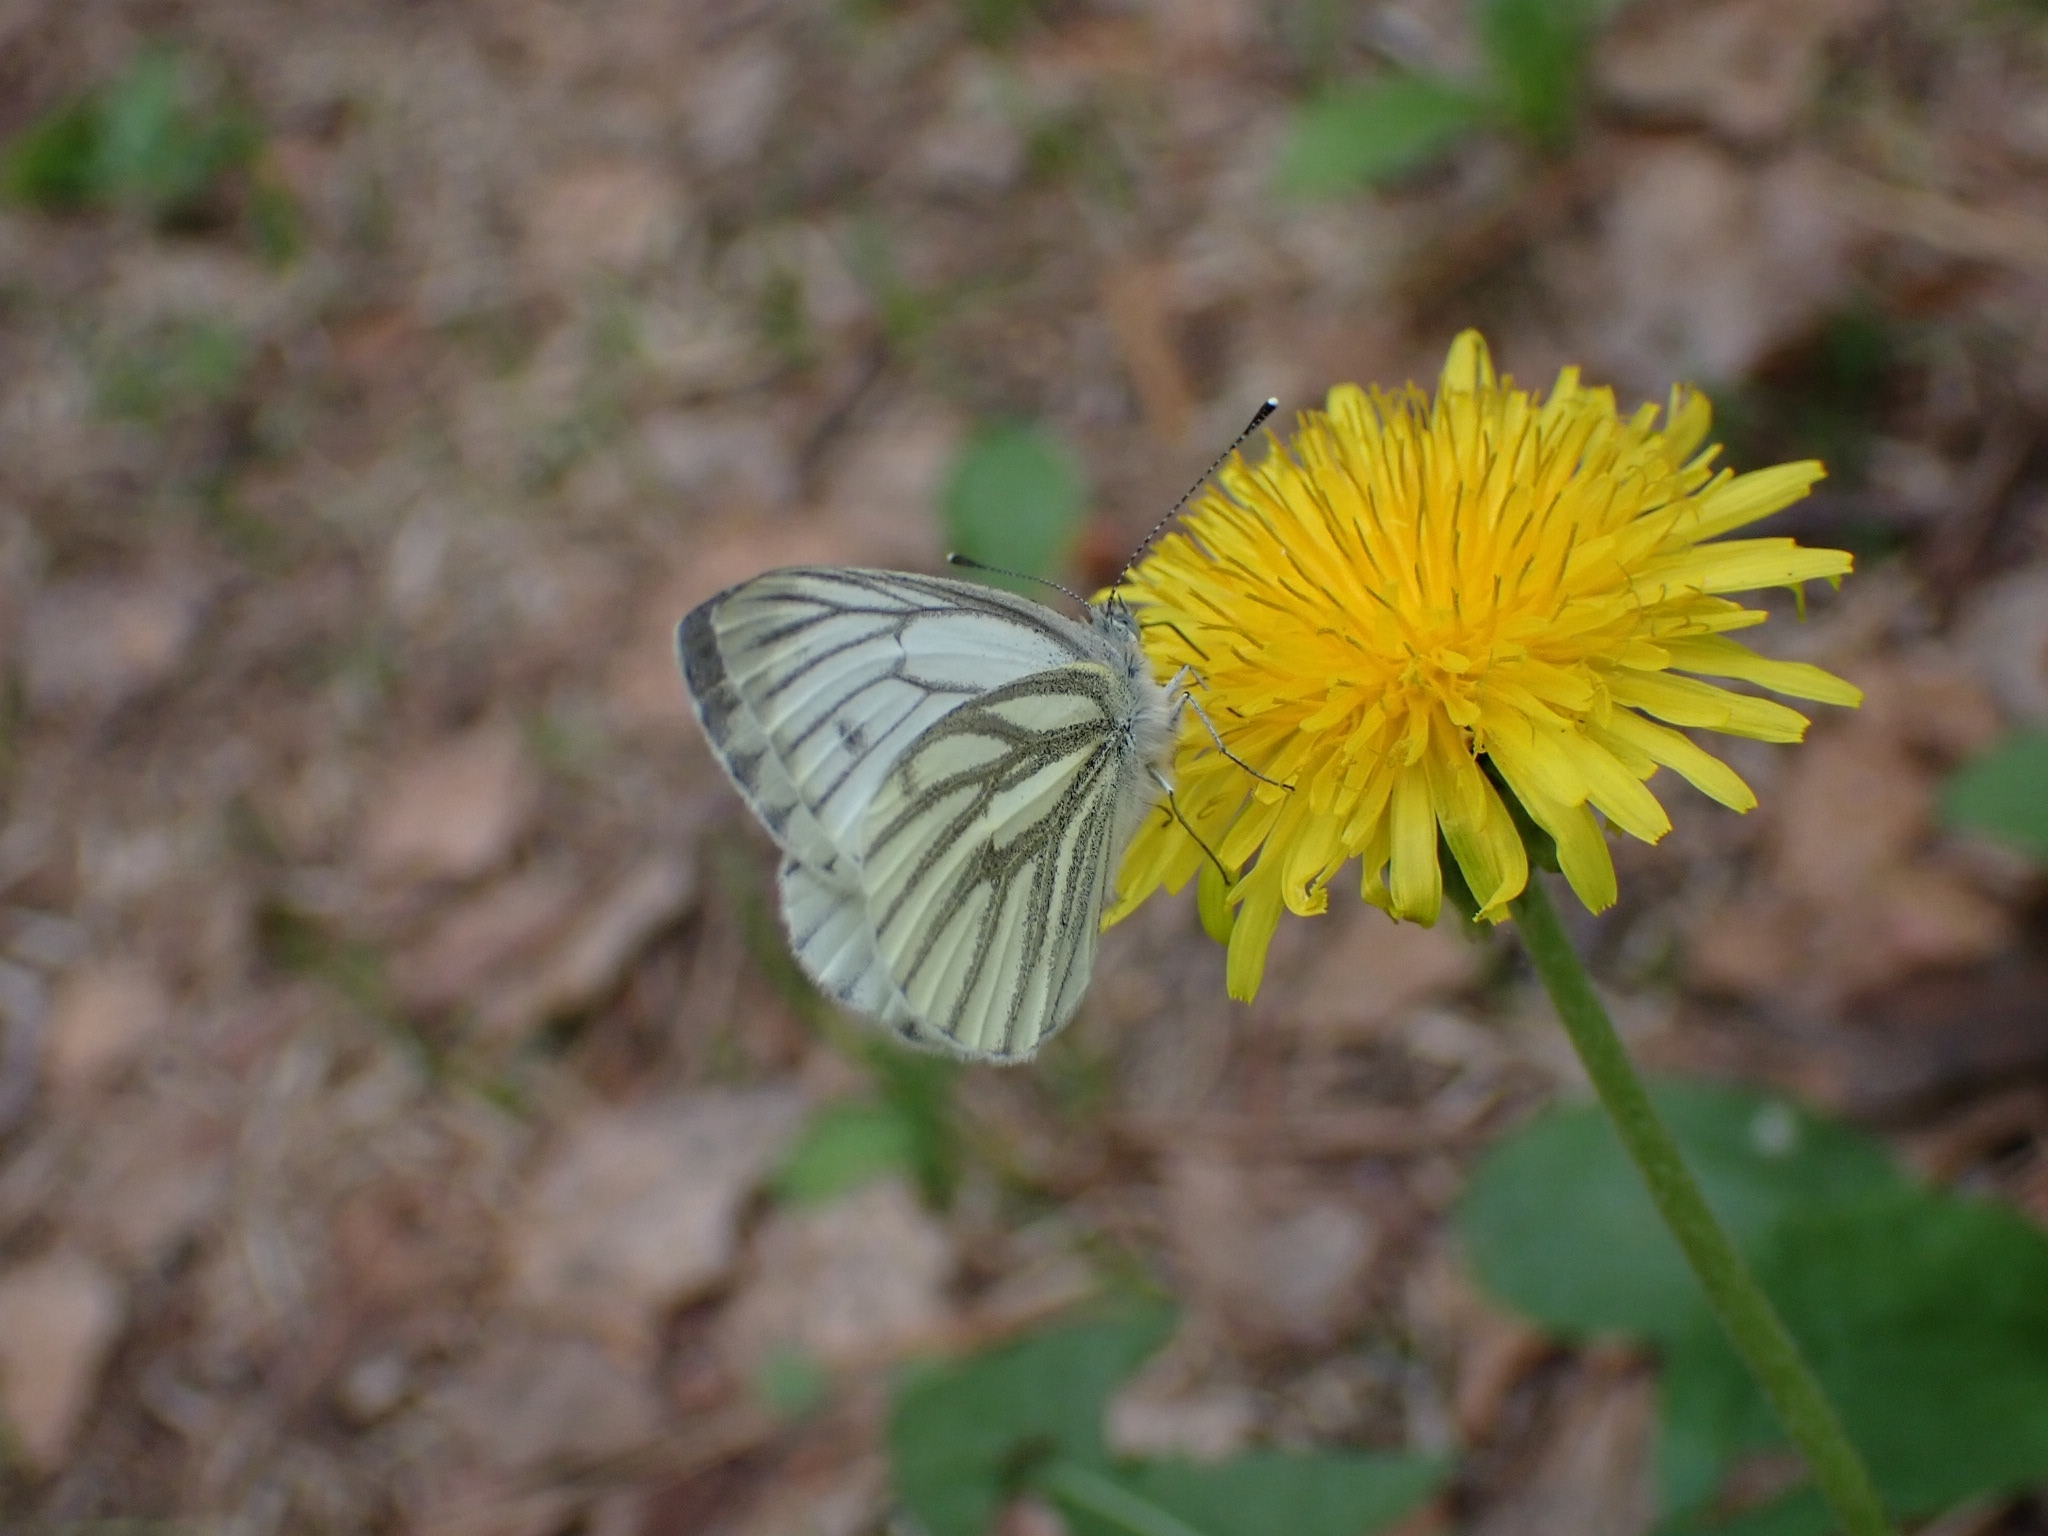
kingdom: Animalia
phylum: Arthropoda
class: Insecta
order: Lepidoptera
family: Pieridae
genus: Pieris
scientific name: Pieris napi
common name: Green-veined white
